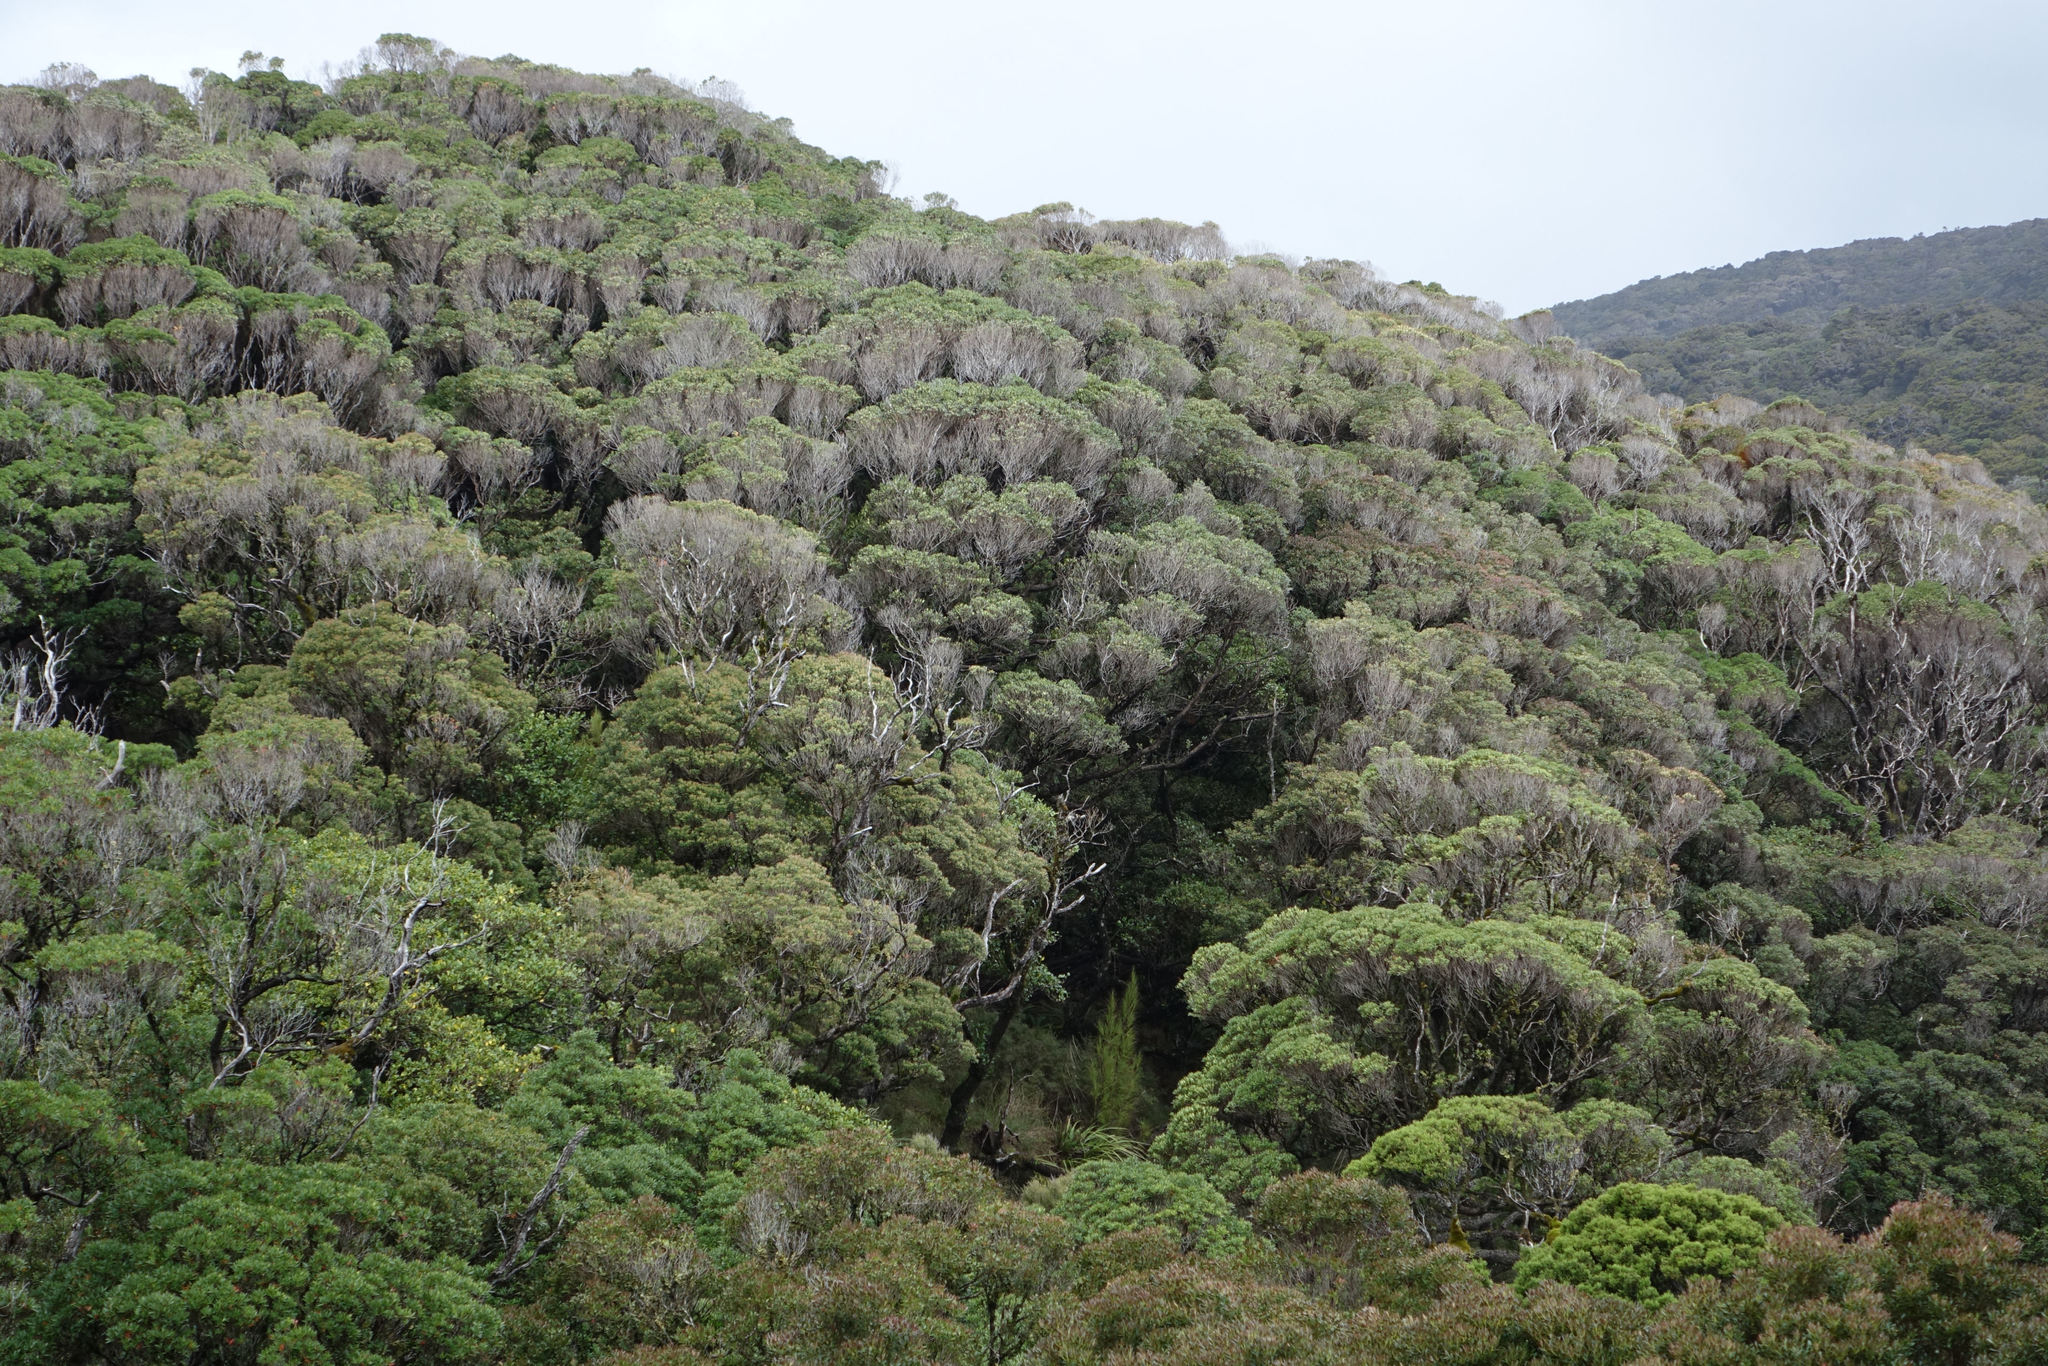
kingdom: Plantae
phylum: Tracheophyta
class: Magnoliopsida
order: Myrtales
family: Myrtaceae
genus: Metrosideros
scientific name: Metrosideros umbellata
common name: Southern rata
